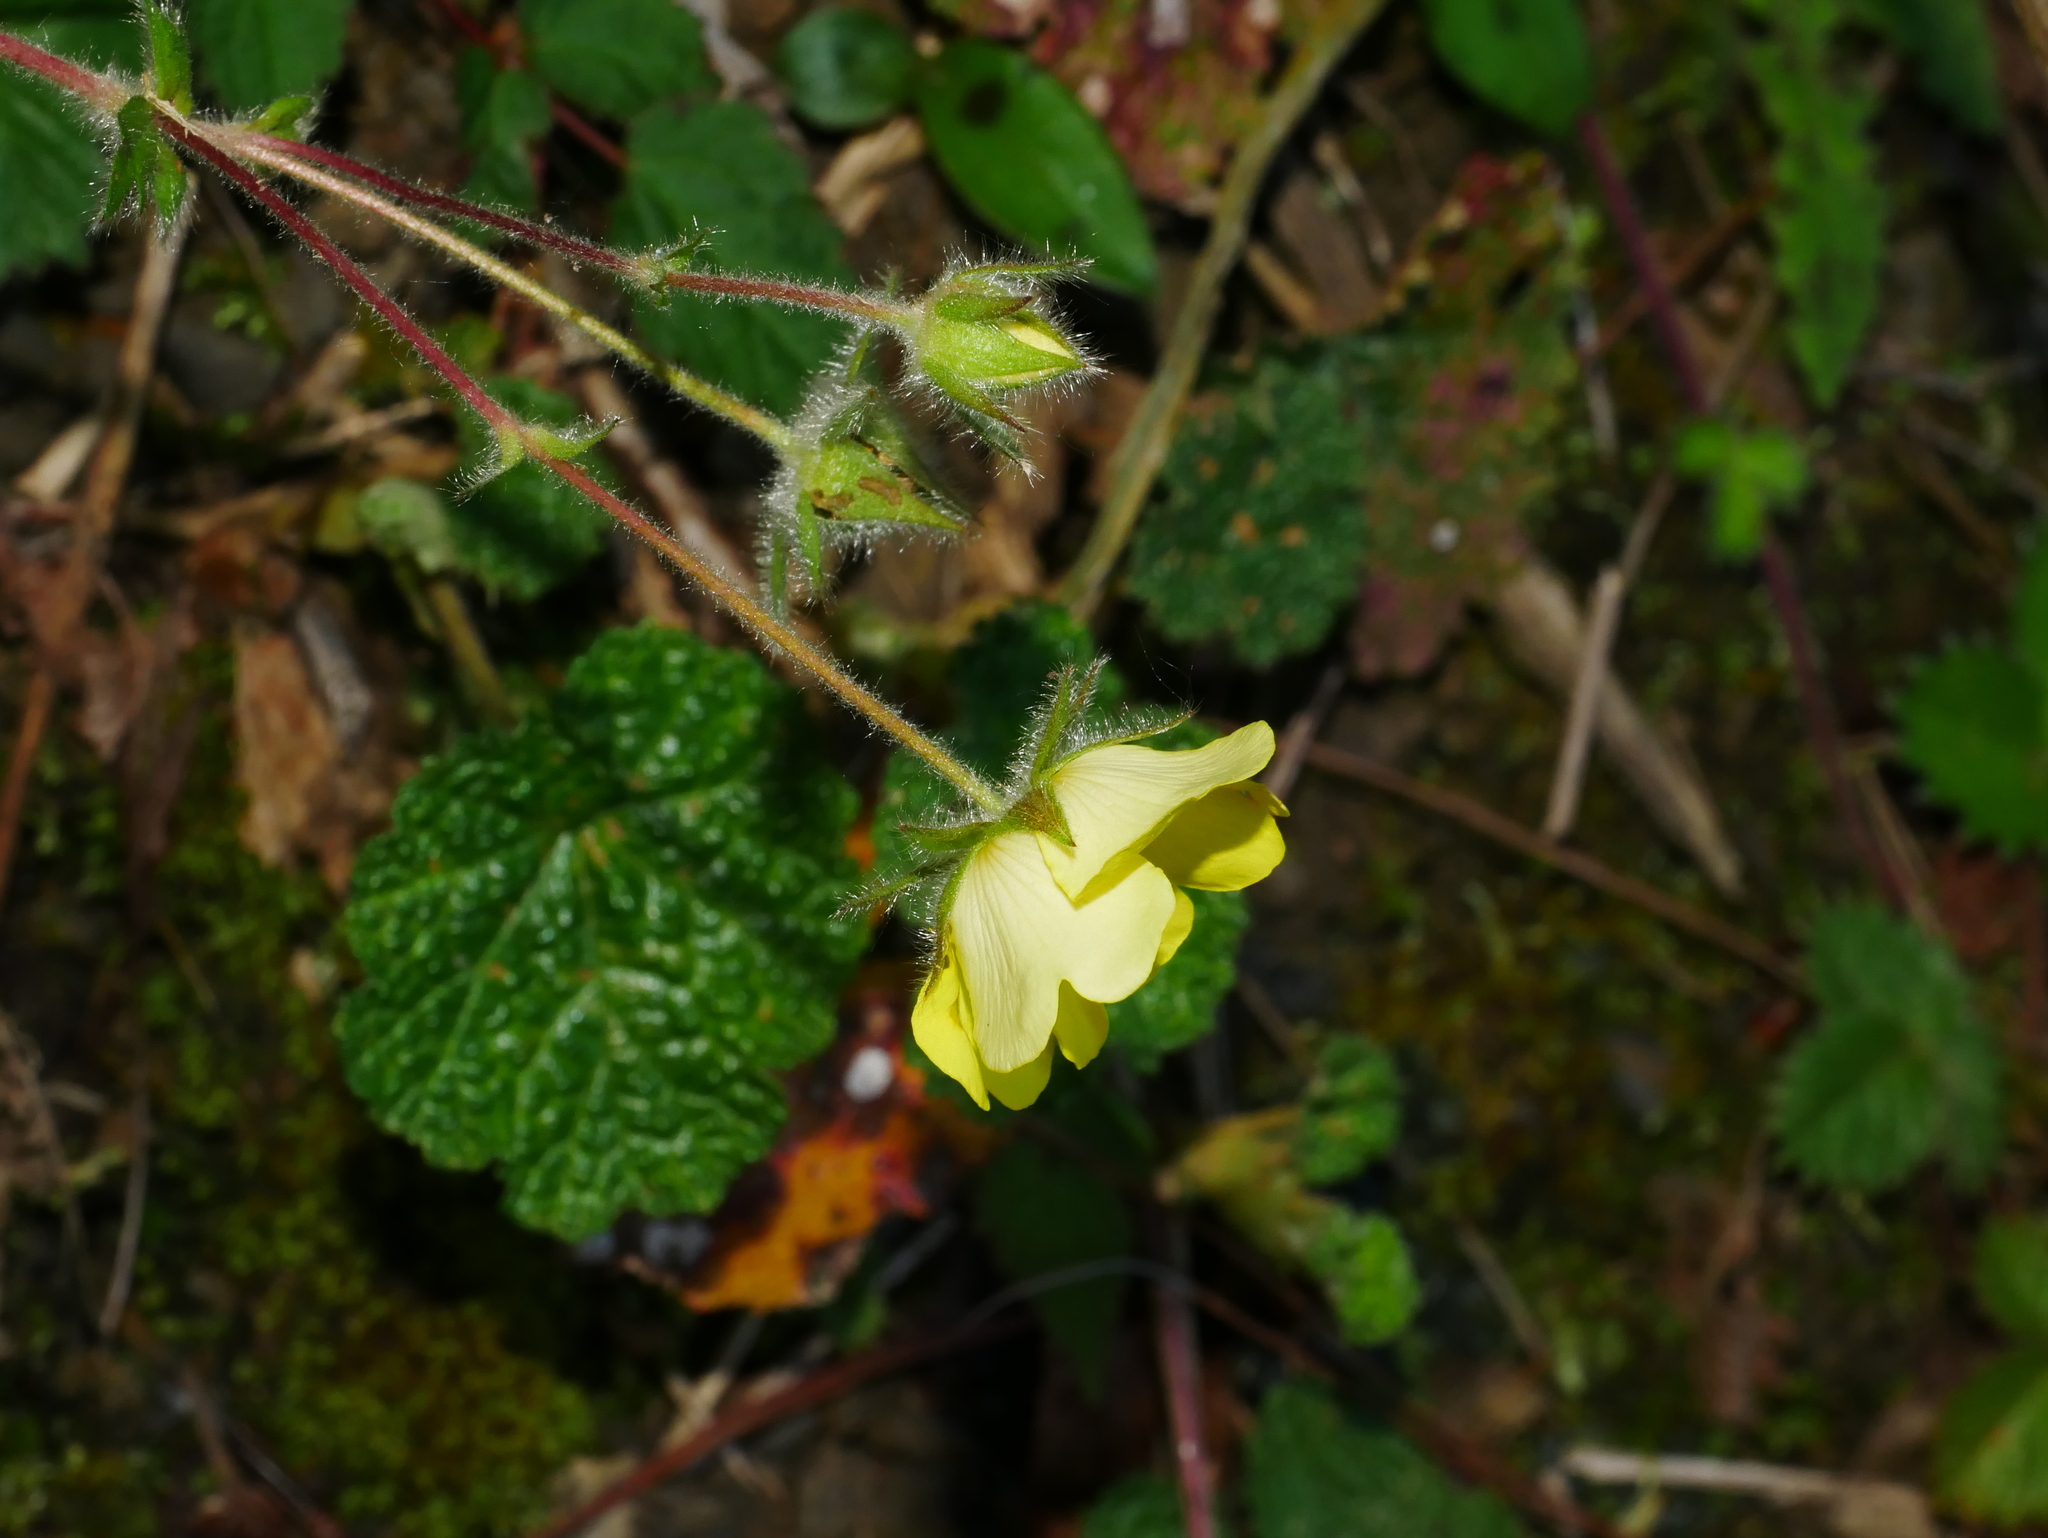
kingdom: Plantae
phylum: Tracheophyta
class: Magnoliopsida
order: Rosales
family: Rosaceae
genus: Potentilla
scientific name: Potentilla matsumurae
